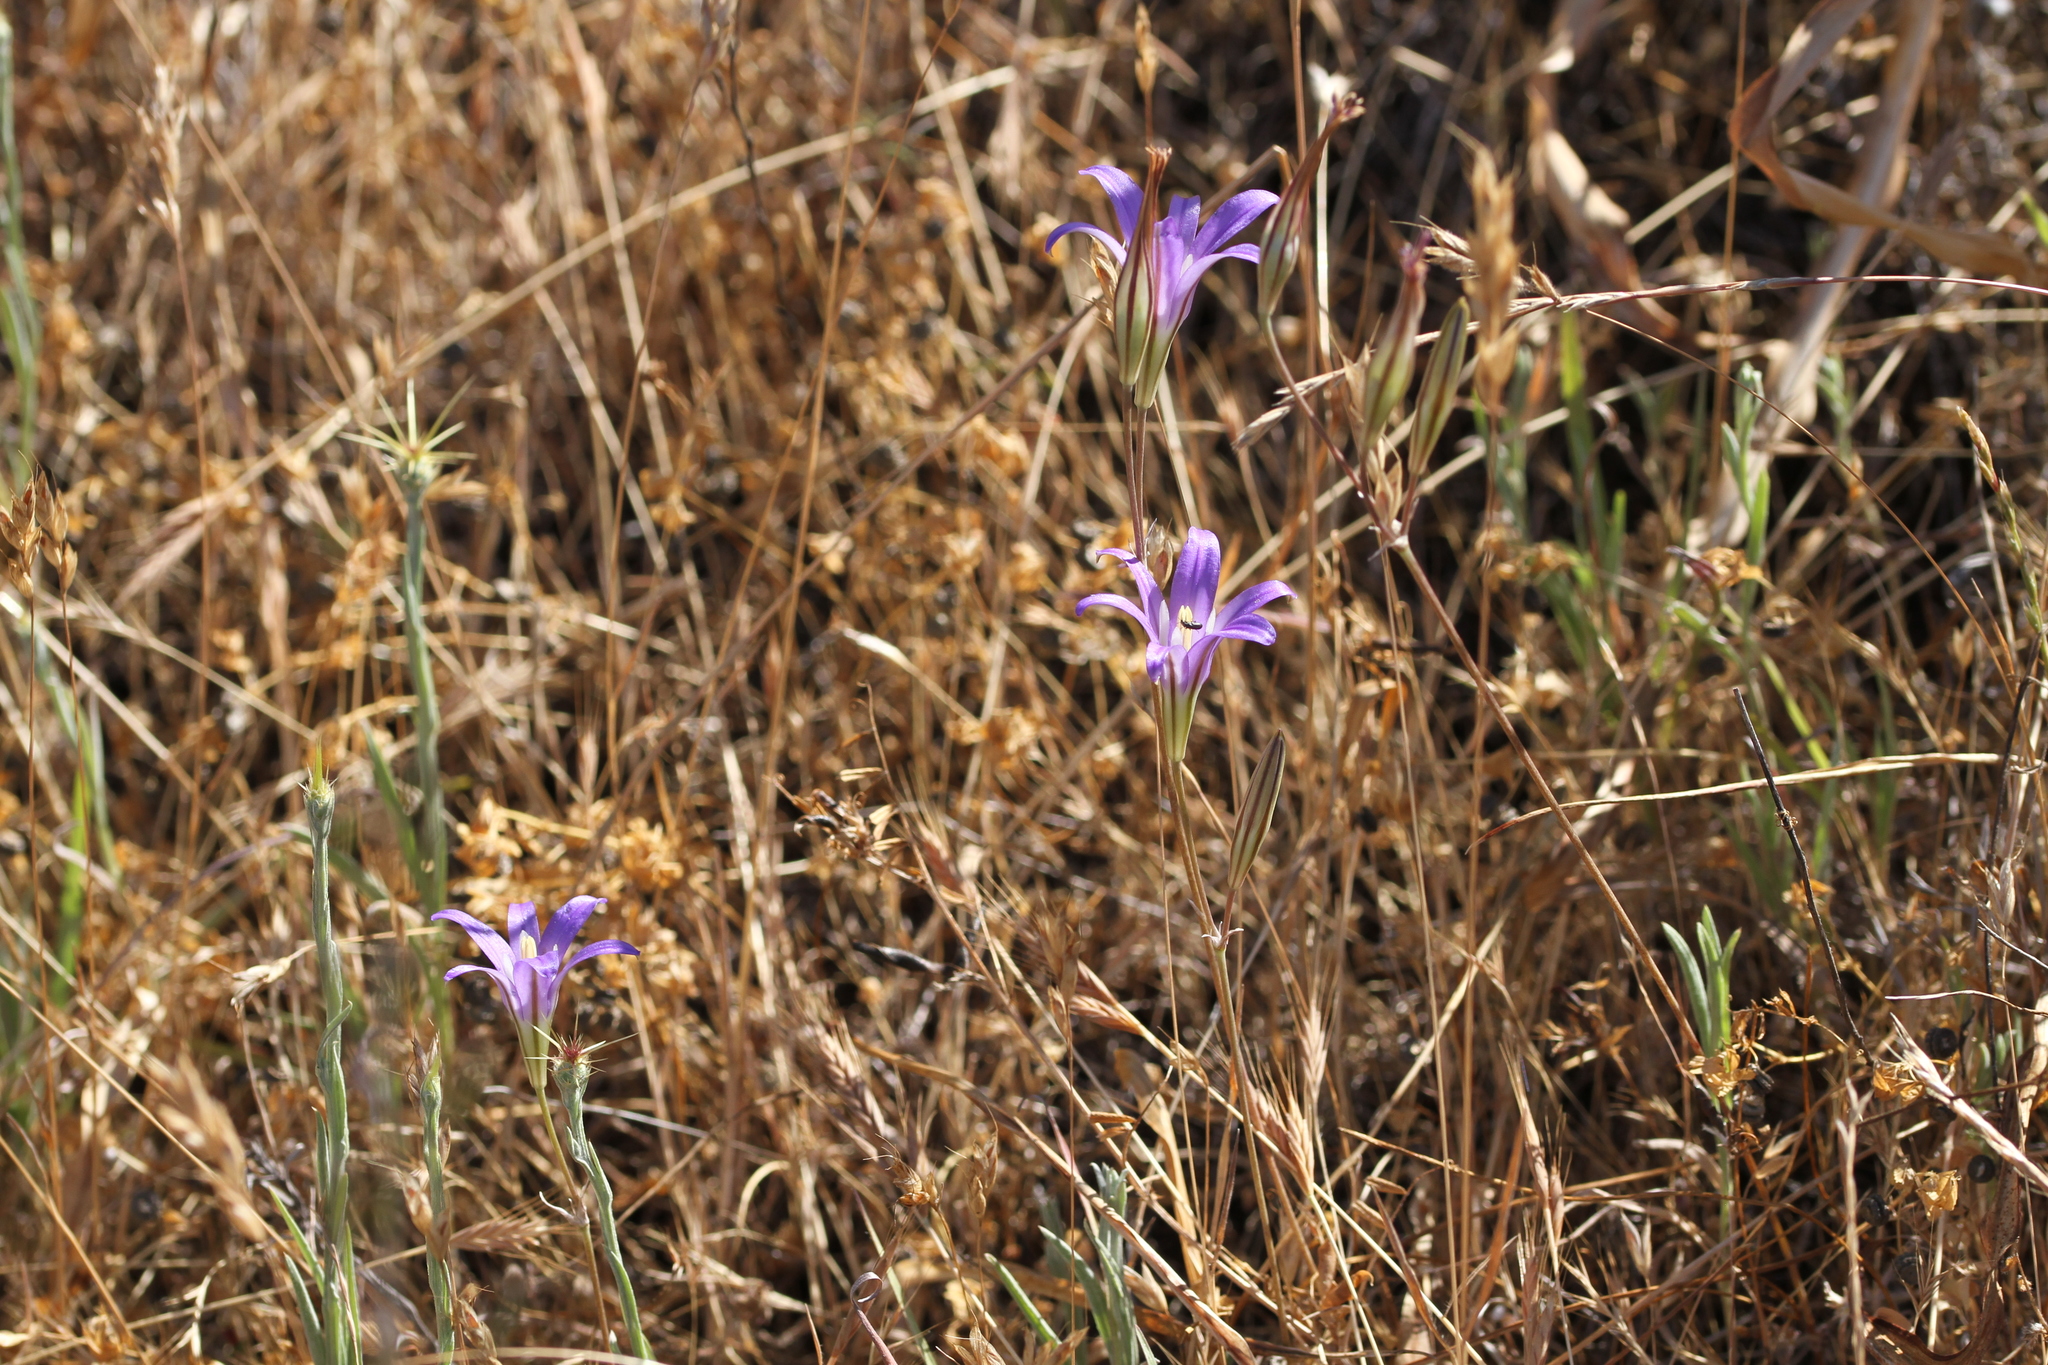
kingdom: Plantae
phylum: Tracheophyta
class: Liliopsida
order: Asparagales
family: Asparagaceae
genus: Brodiaea
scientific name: Brodiaea elegans
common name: Elegant cluster-lily
